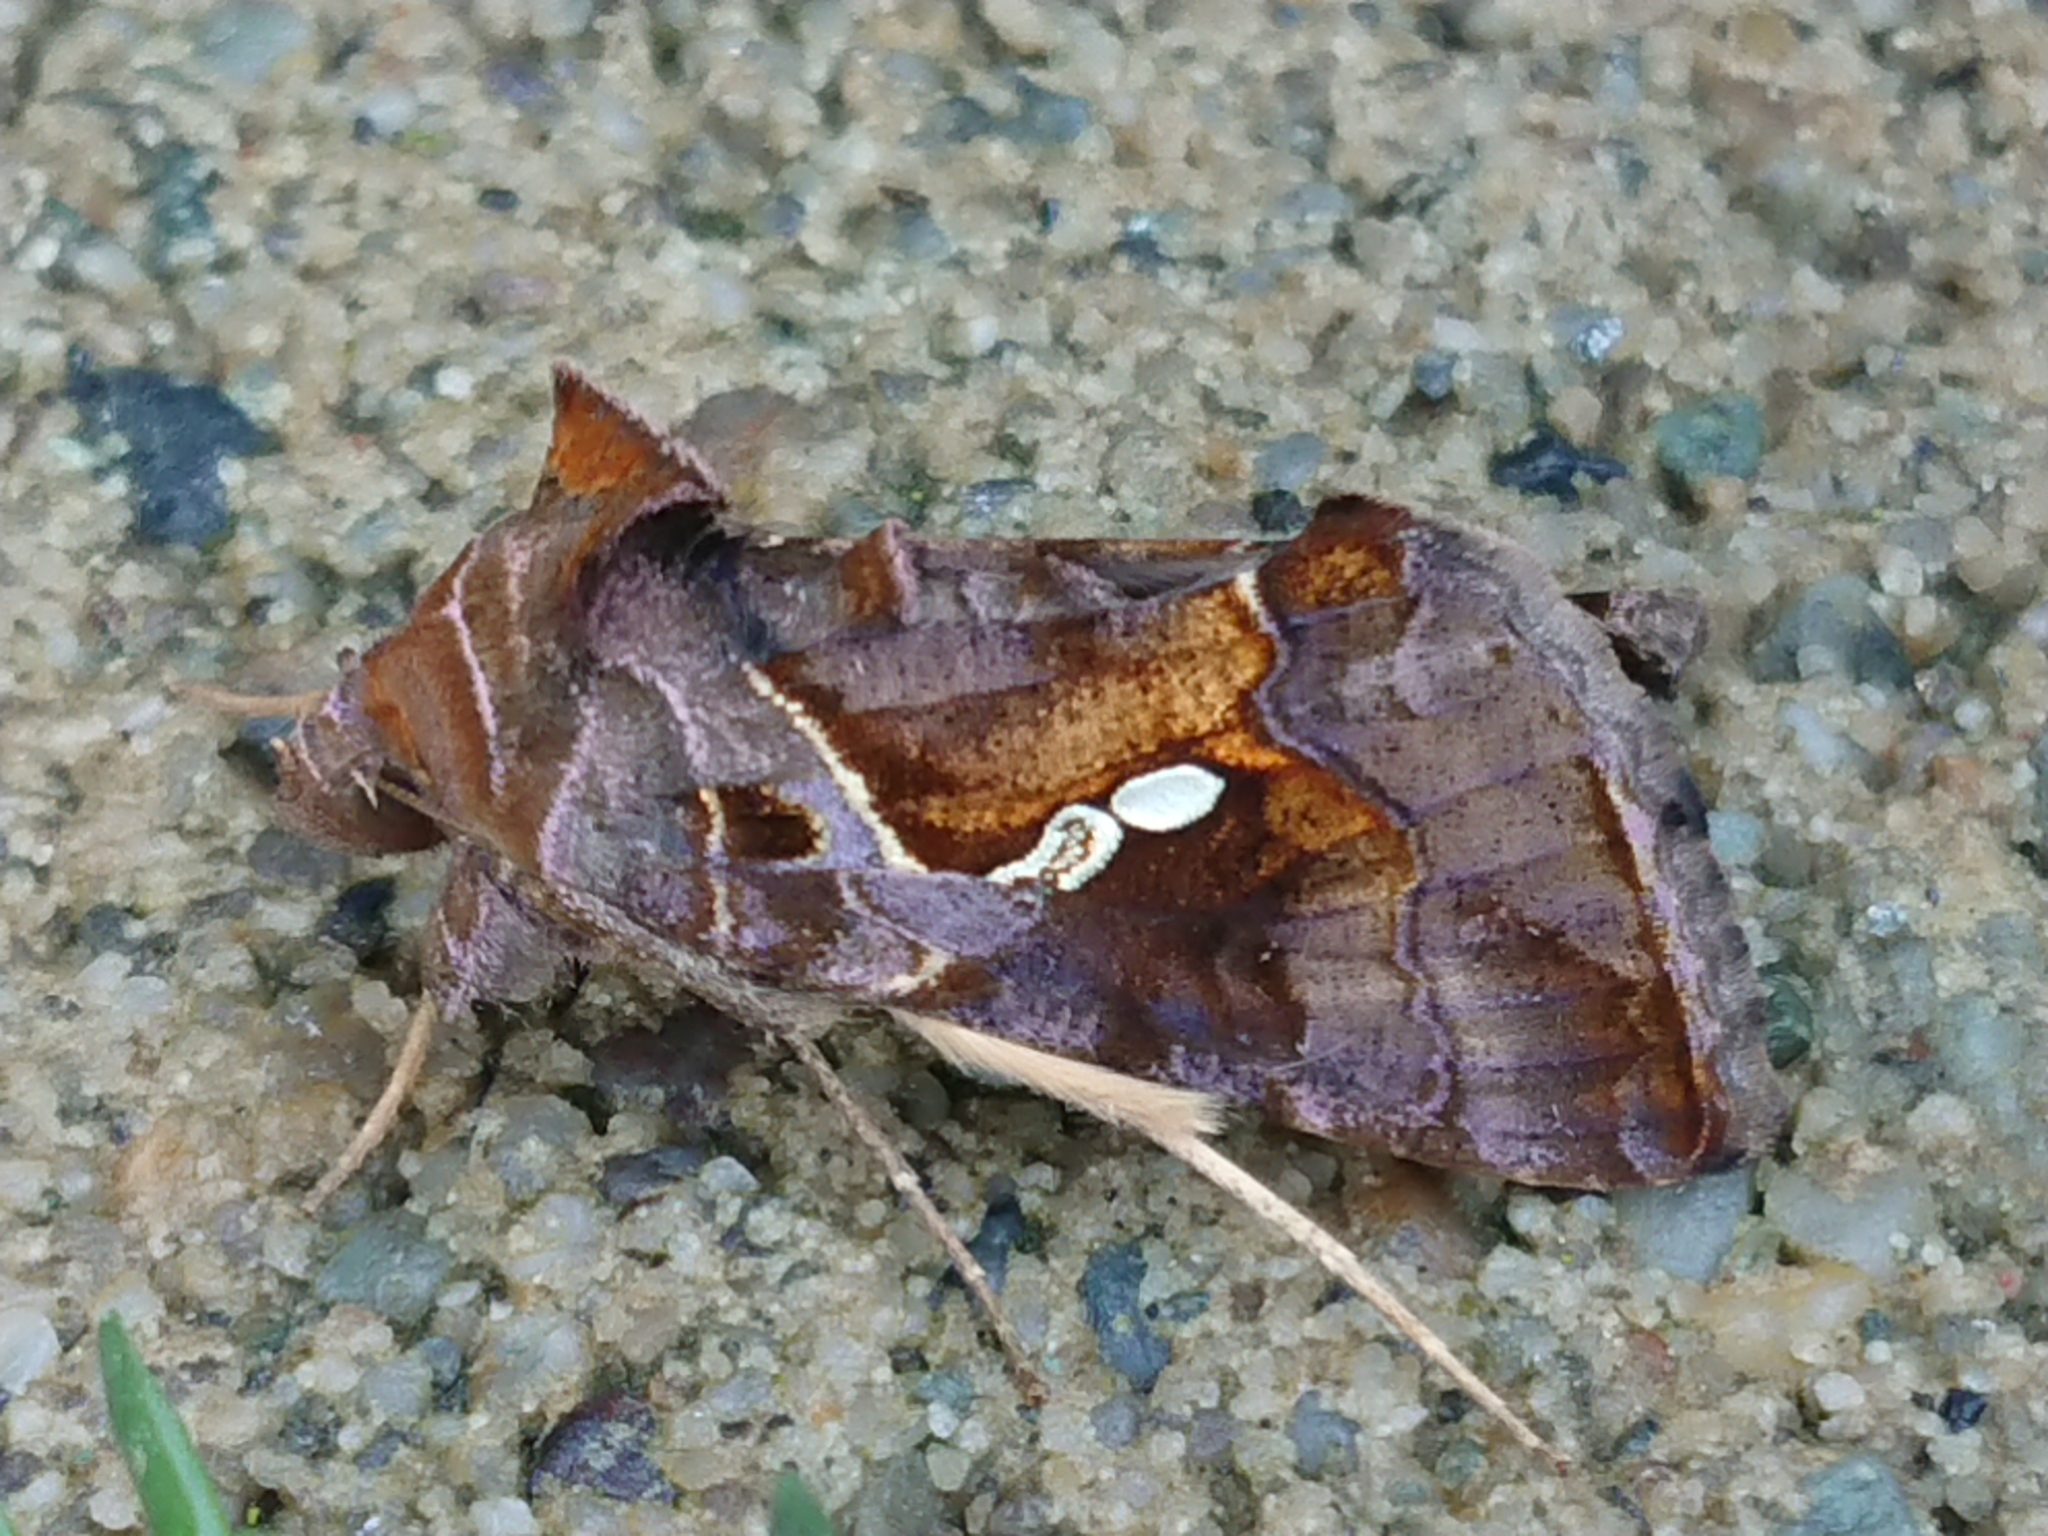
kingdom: Animalia
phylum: Arthropoda
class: Insecta
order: Lepidoptera
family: Noctuidae
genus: Chrysodeixis
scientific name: Chrysodeixis eriosoma
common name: Green garden looper
